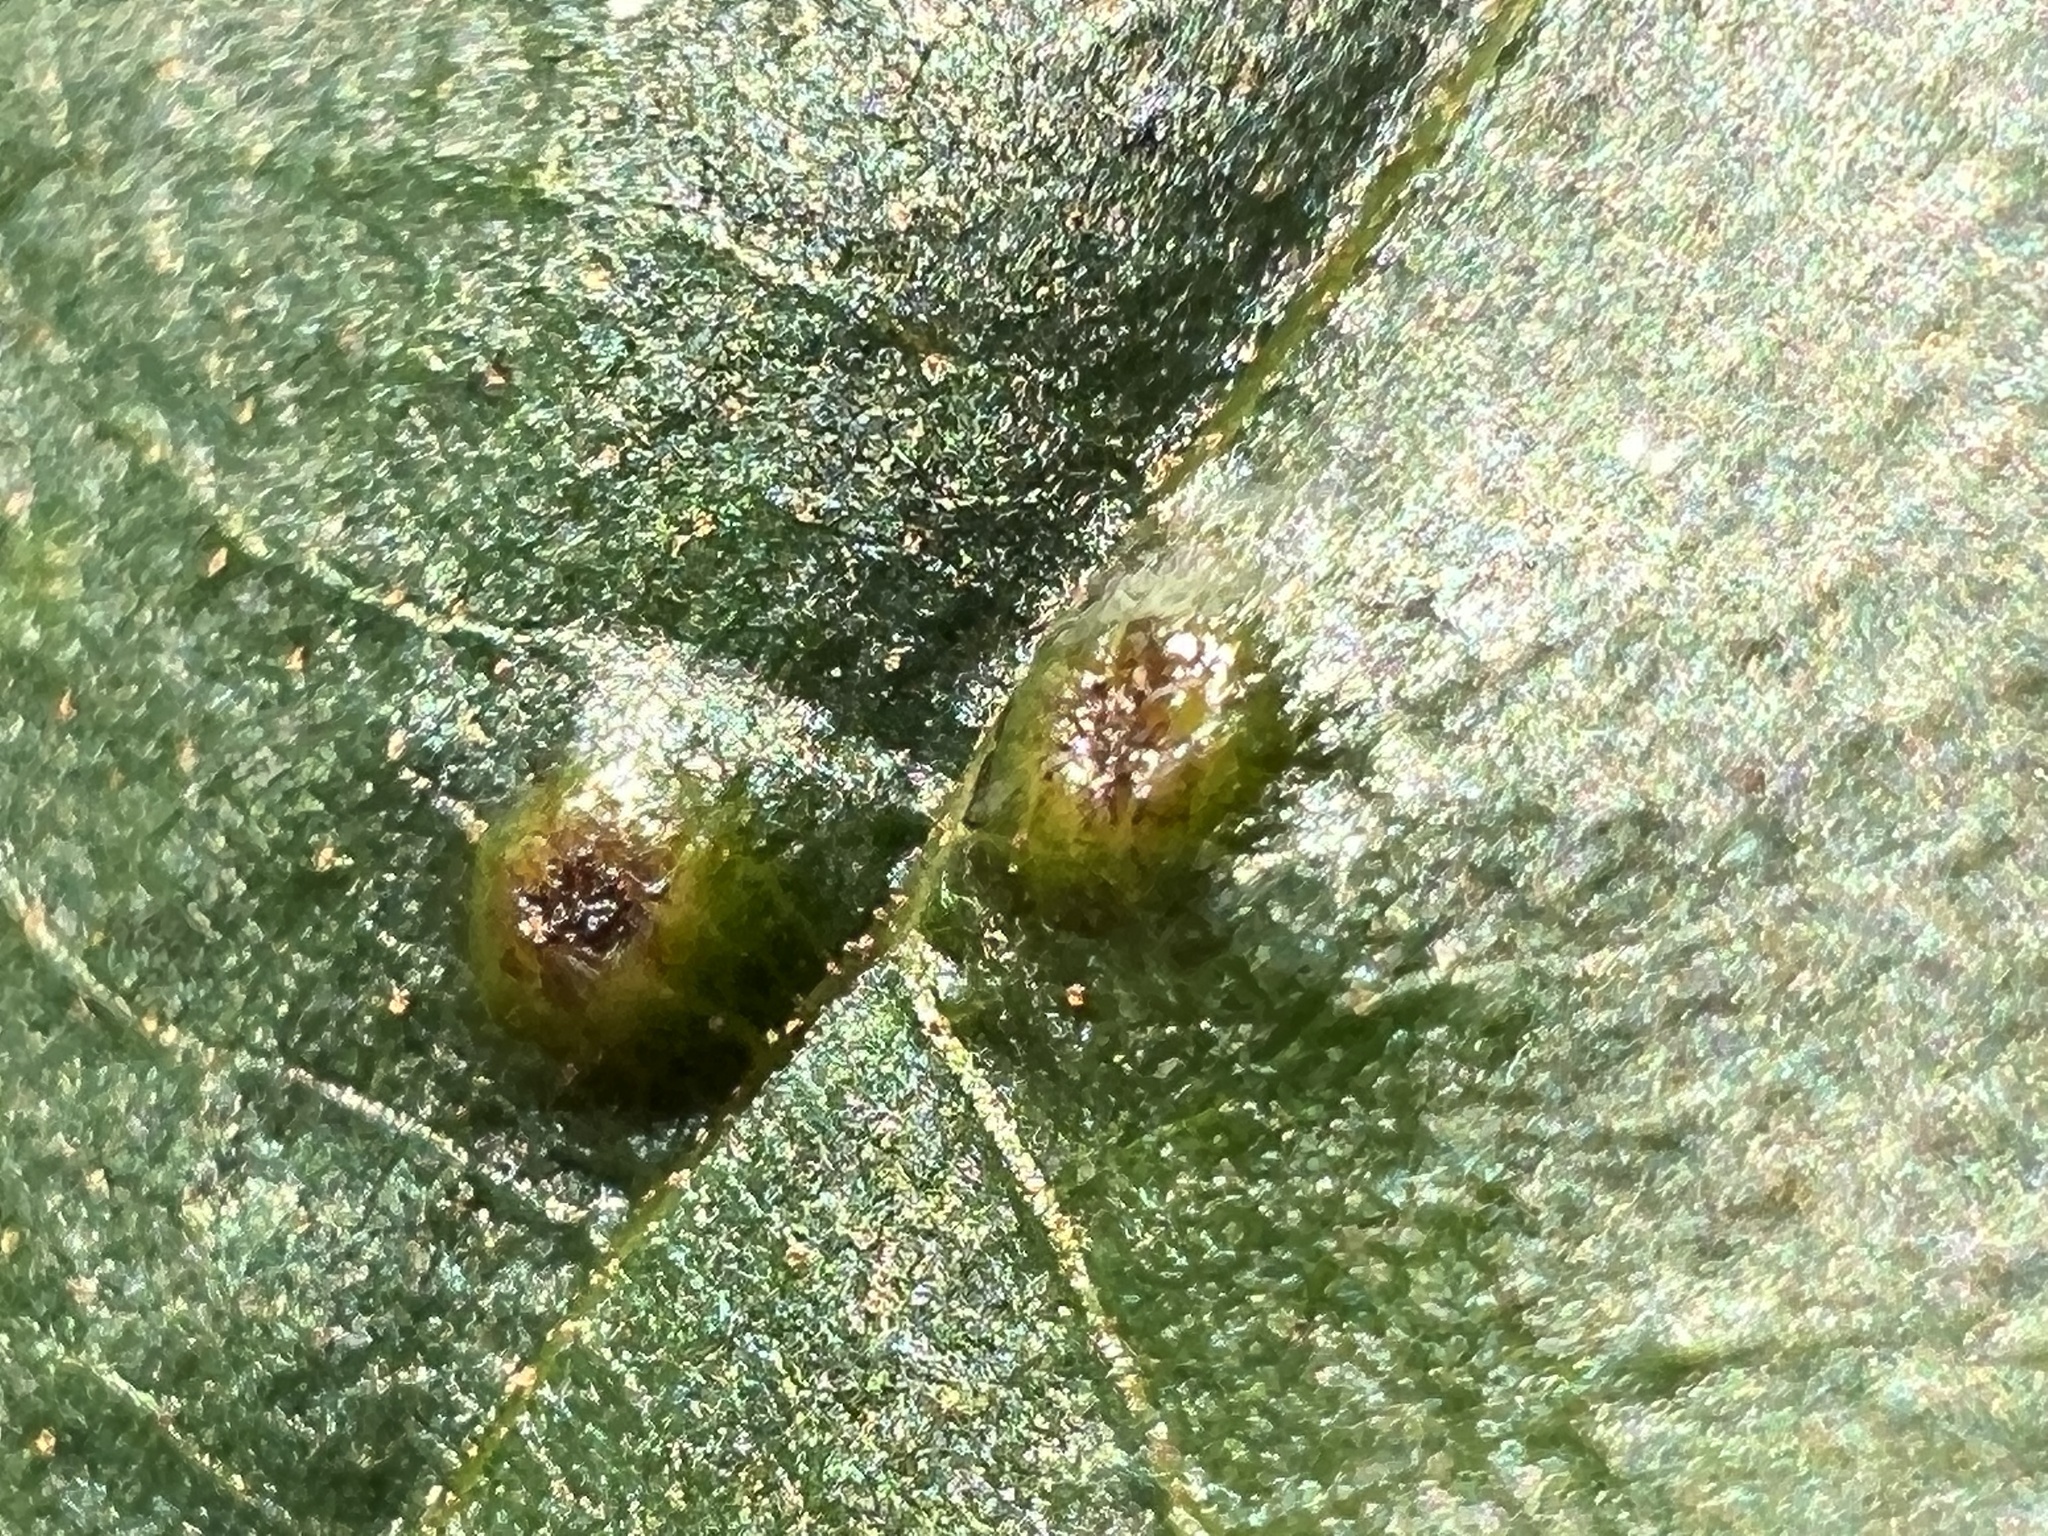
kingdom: Animalia
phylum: Arthropoda
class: Insecta
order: Diptera
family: Cecidomyiidae
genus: Caryomyia
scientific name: Caryomyia tubicola
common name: Hickory bullet gall midge
